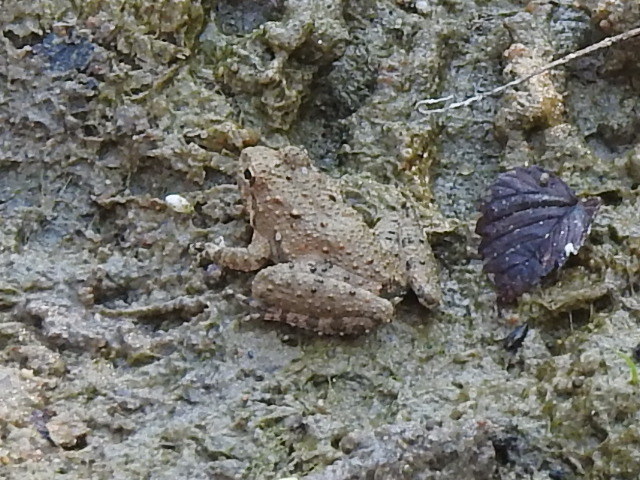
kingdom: Animalia
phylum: Chordata
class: Amphibia
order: Anura
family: Hylidae
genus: Acris
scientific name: Acris blanchardi
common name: Blanchard's cricket frog
